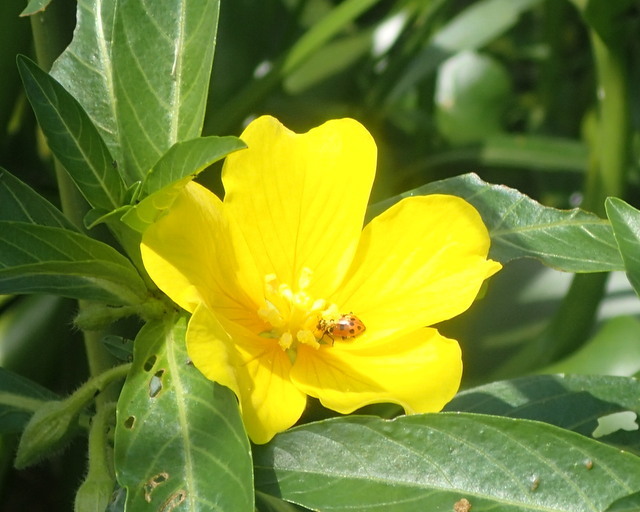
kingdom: Plantae
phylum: Tracheophyta
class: Magnoliopsida
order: Myrtales
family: Onagraceae
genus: Ludwigia
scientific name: Ludwigia grandiflora
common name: Water primrose
